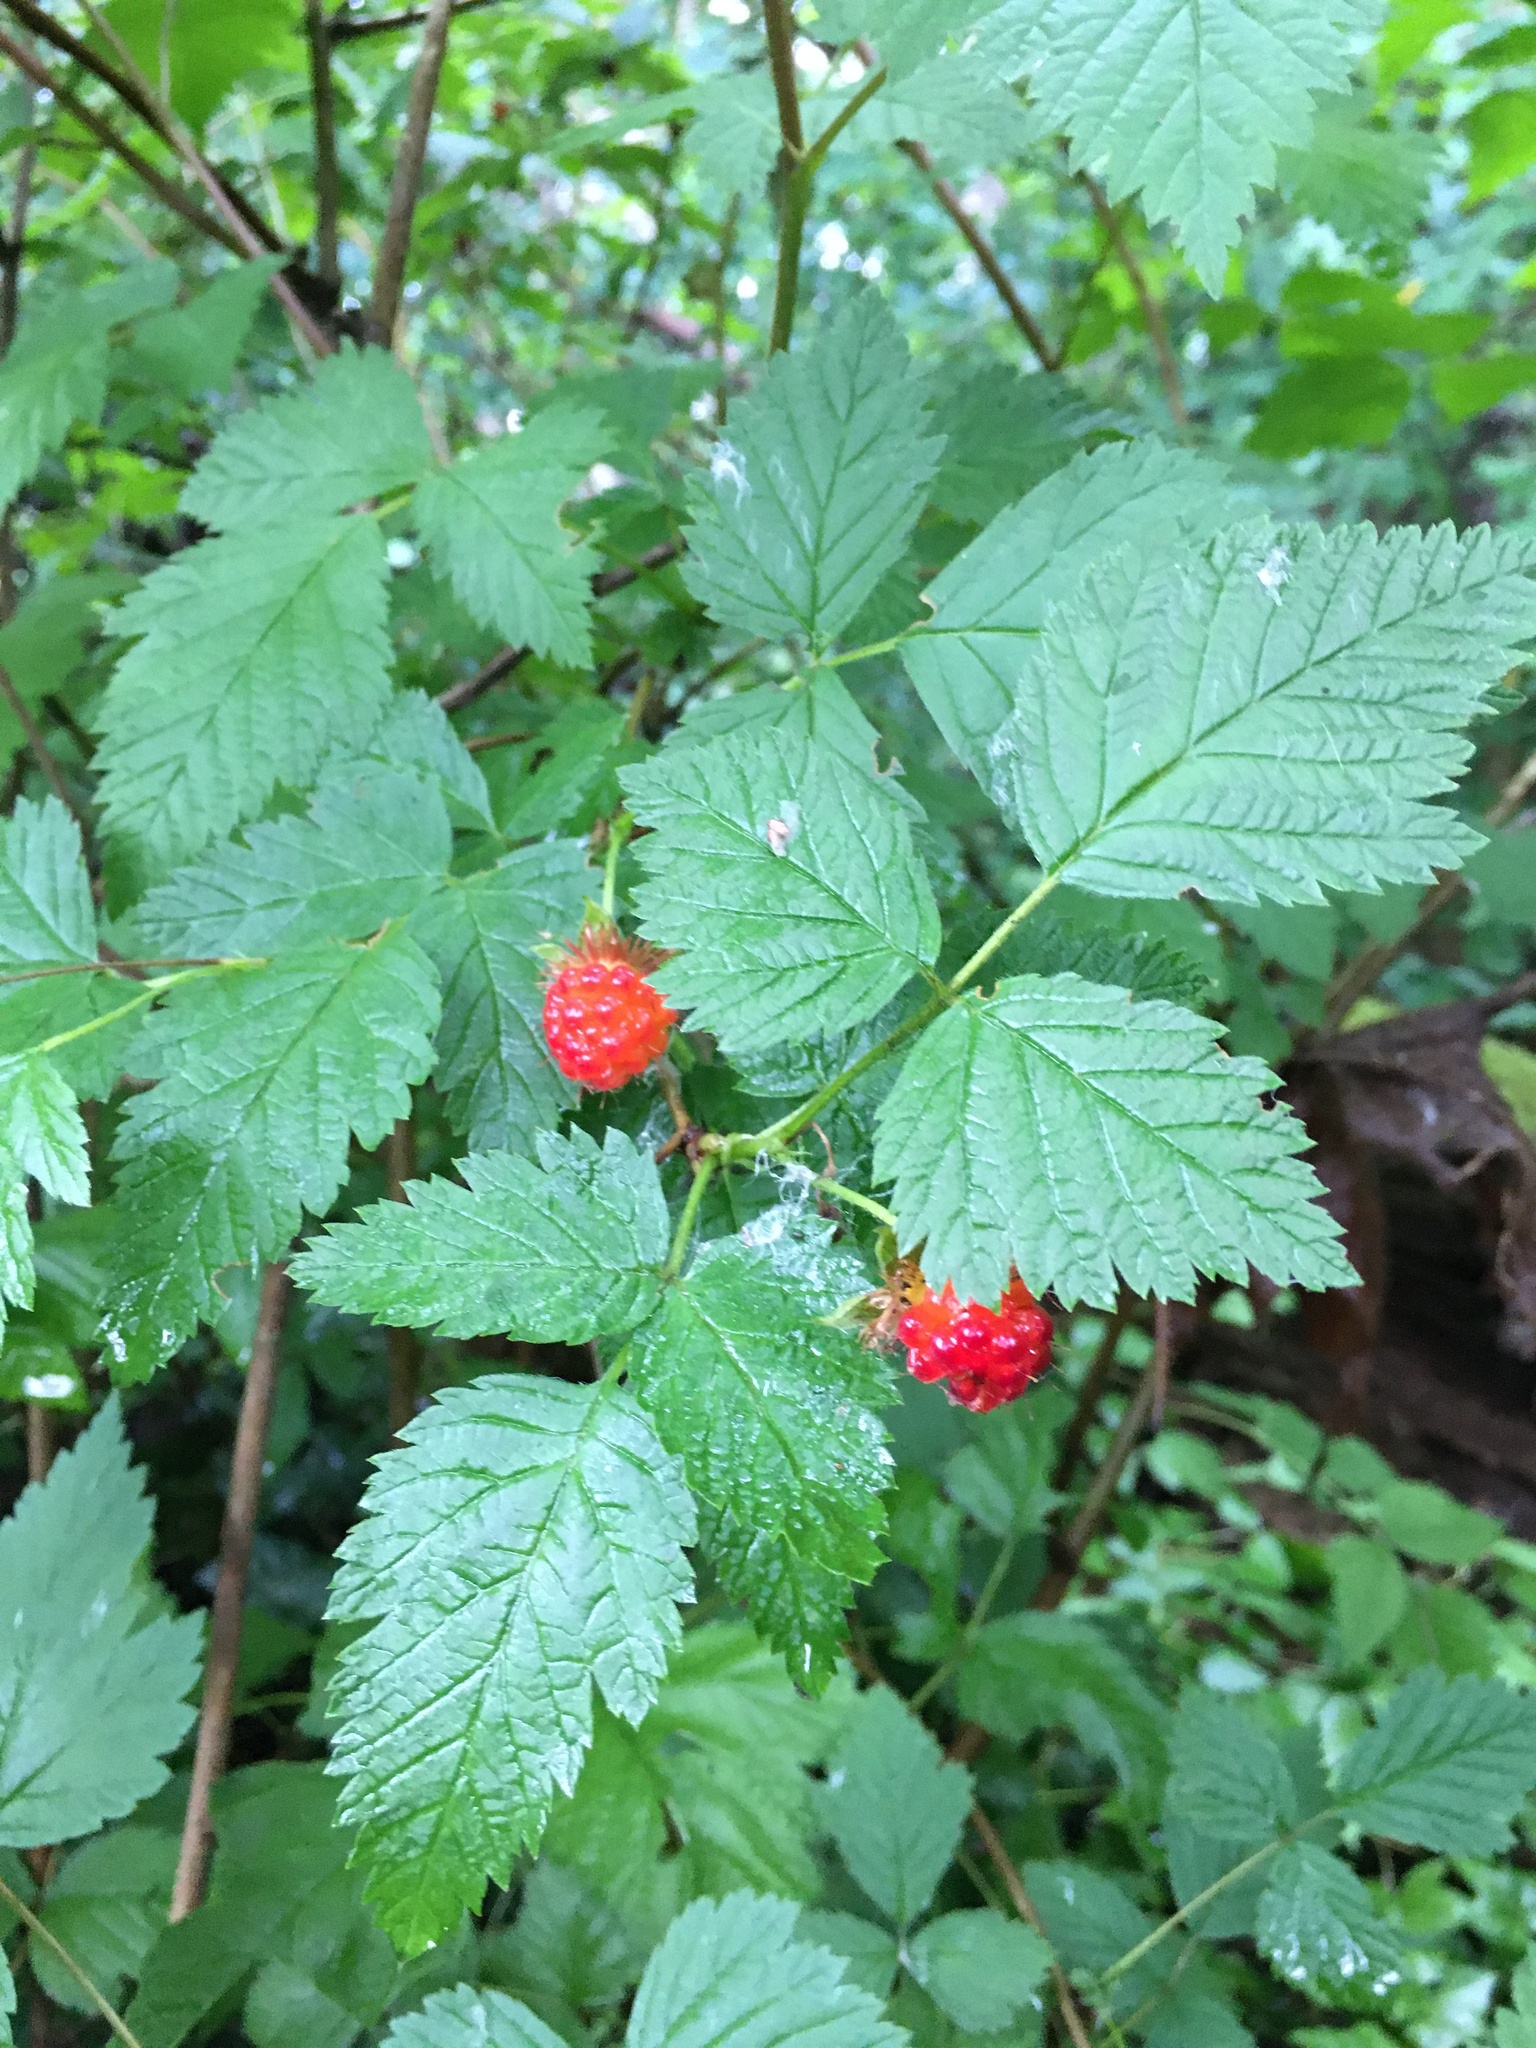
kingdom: Plantae
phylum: Tracheophyta
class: Magnoliopsida
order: Rosales
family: Rosaceae
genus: Rubus
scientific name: Rubus spectabilis
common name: Salmonberry
